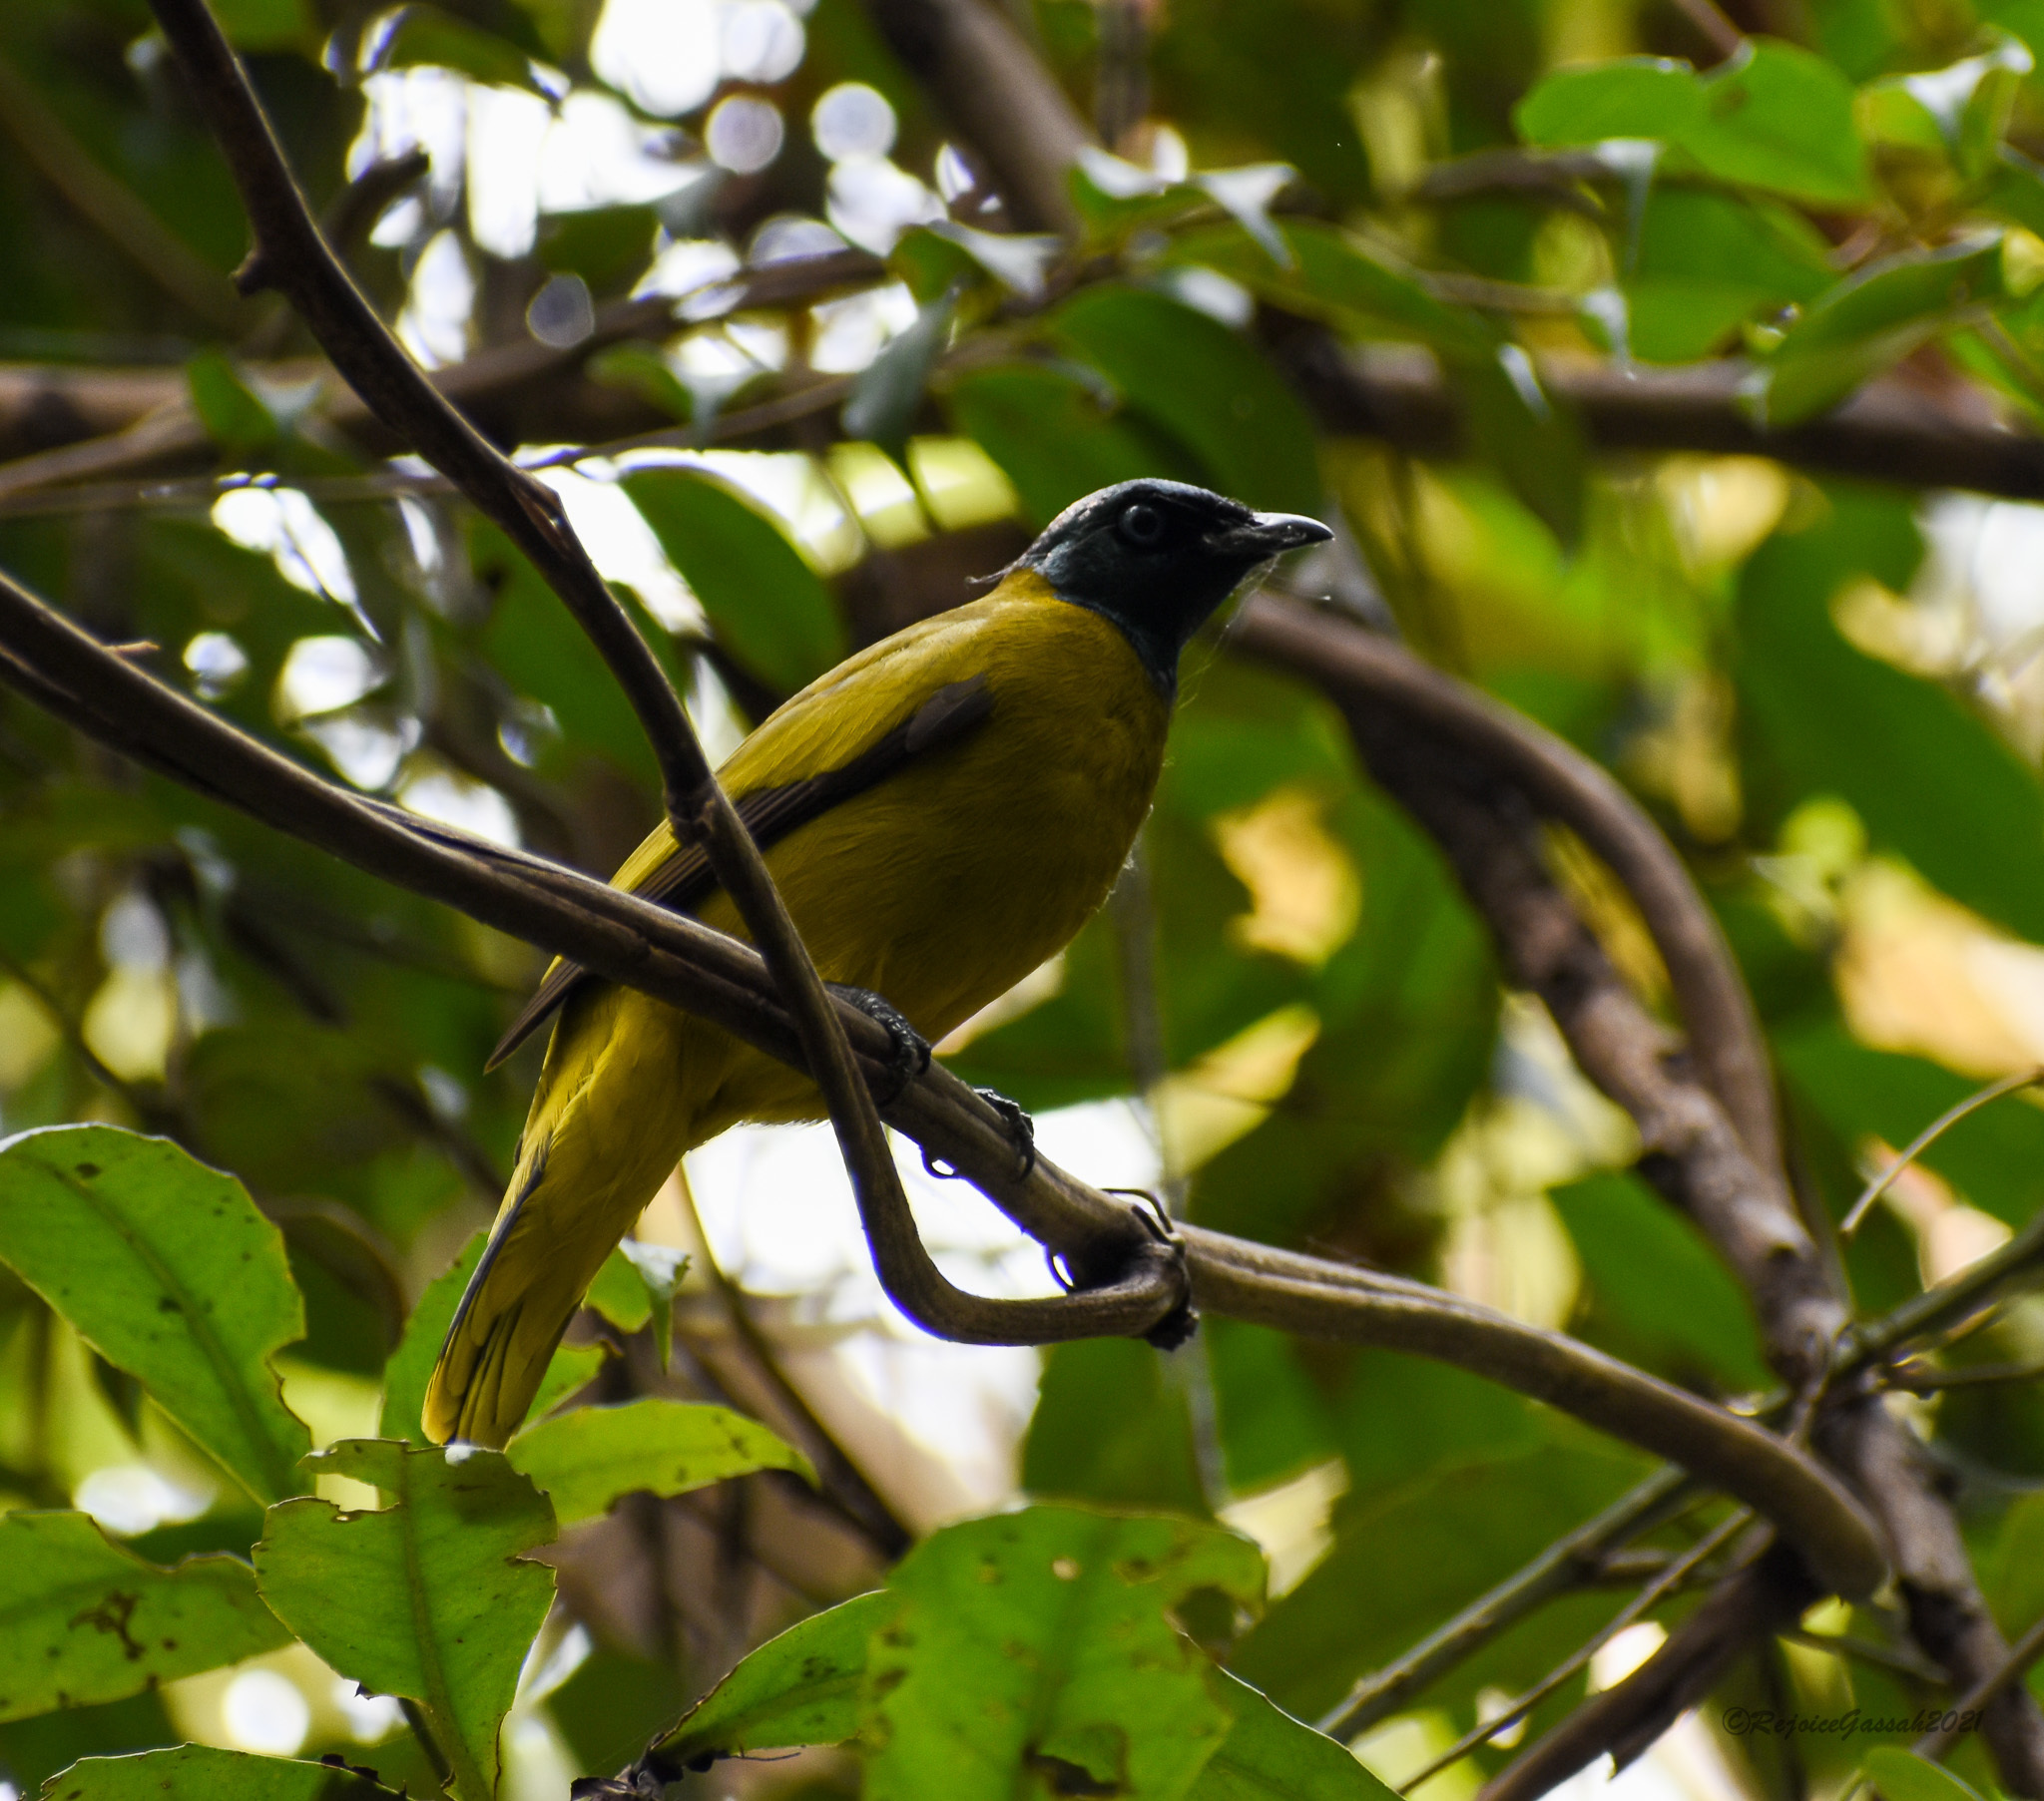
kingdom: Animalia
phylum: Chordata
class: Aves
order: Passeriformes
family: Pycnonotidae
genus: Microtarsus
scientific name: Microtarsus
